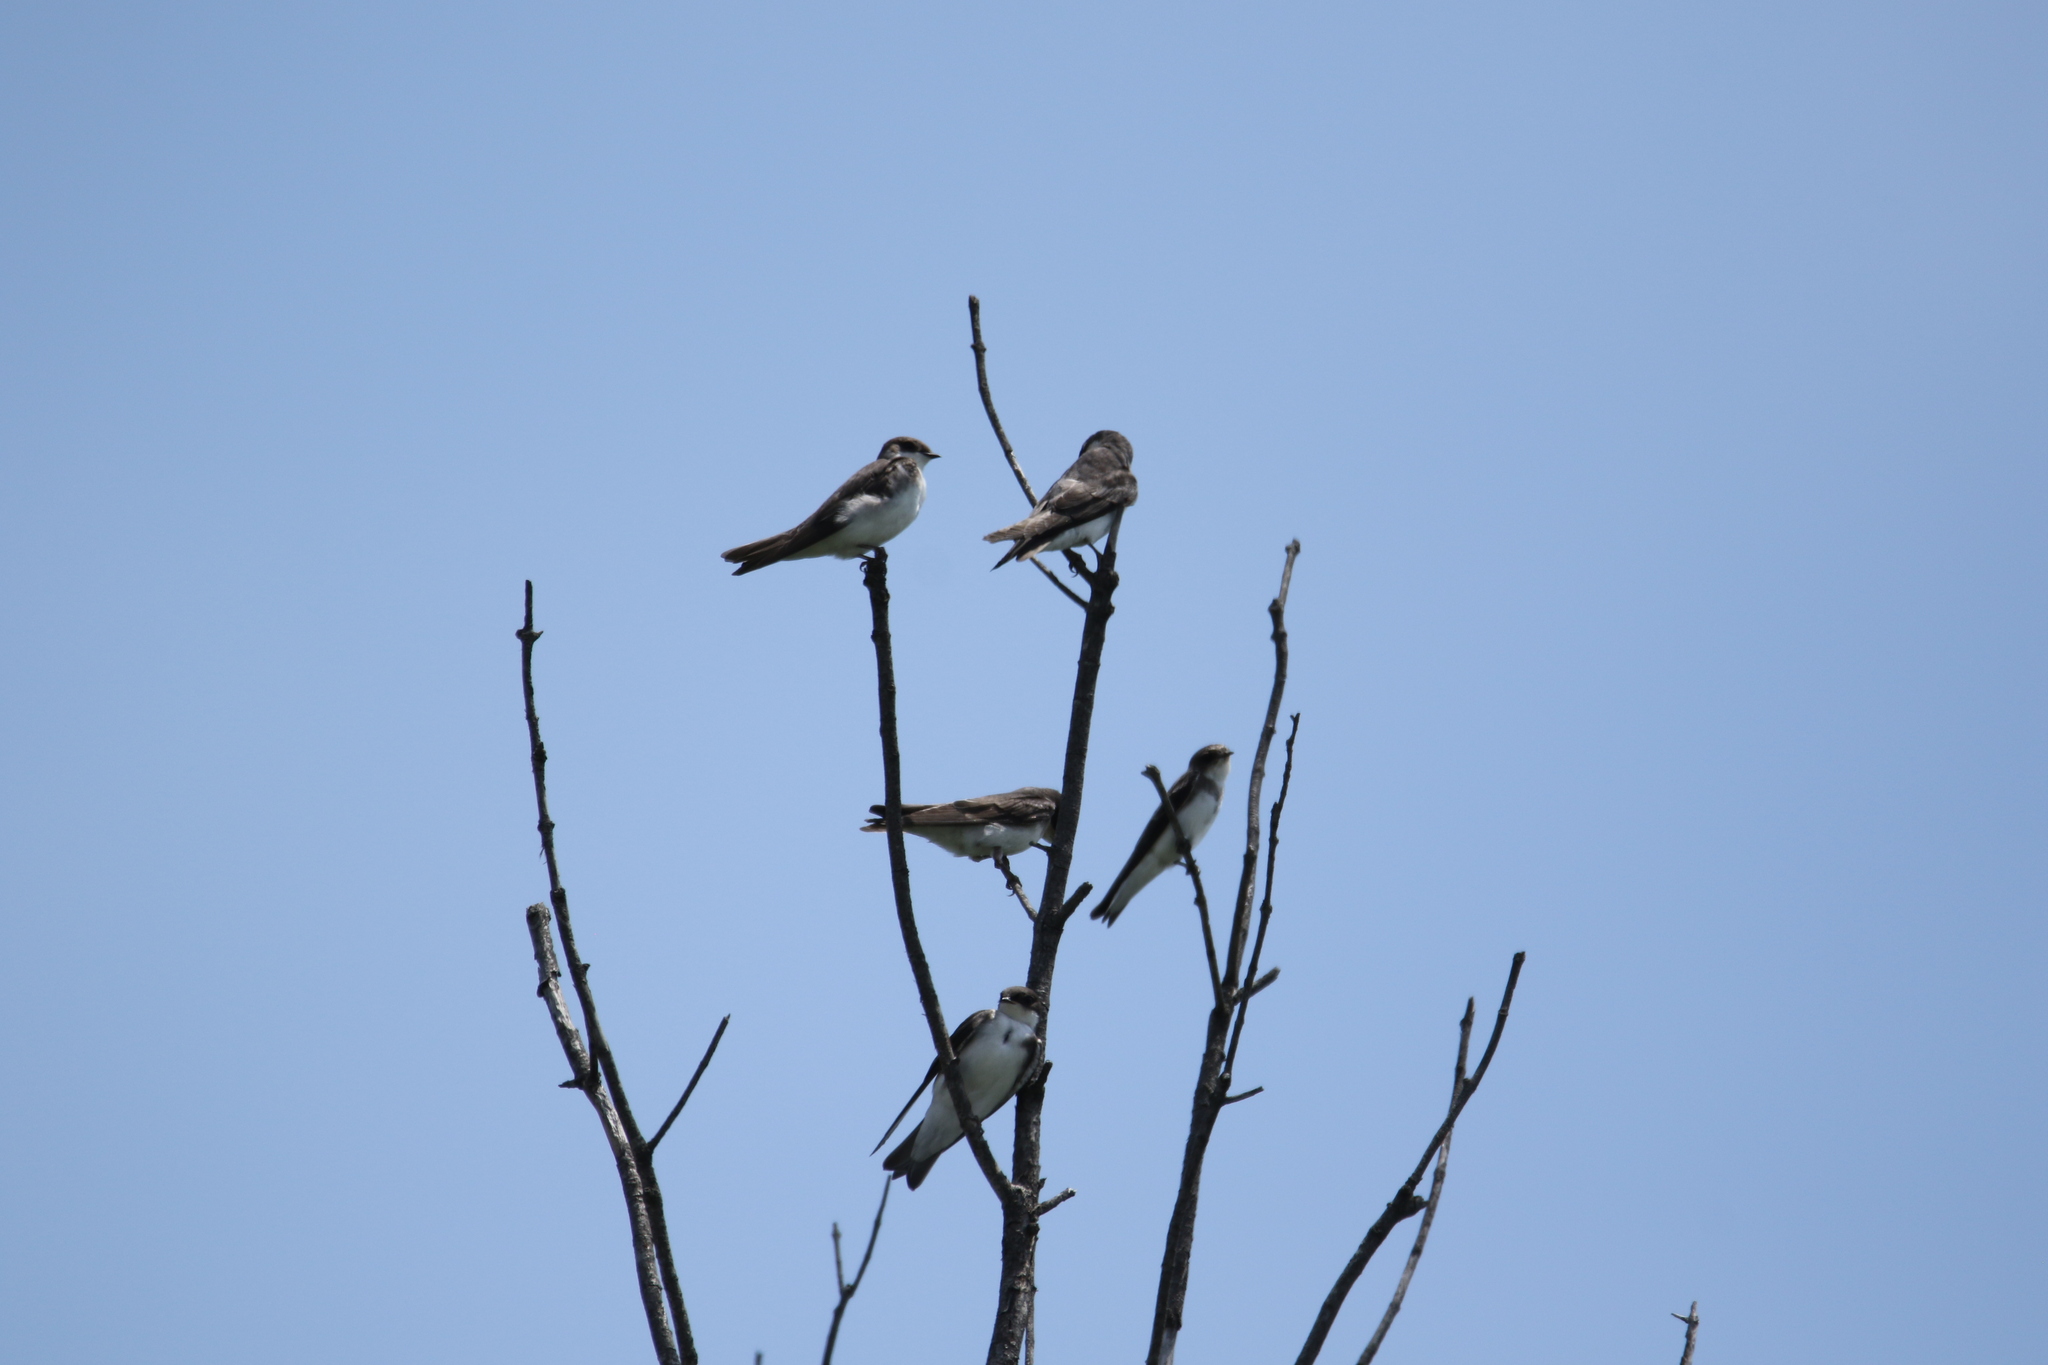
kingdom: Animalia
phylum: Chordata
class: Aves
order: Passeriformes
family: Hirundinidae
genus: Riparia
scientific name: Riparia riparia
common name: Sand martin
